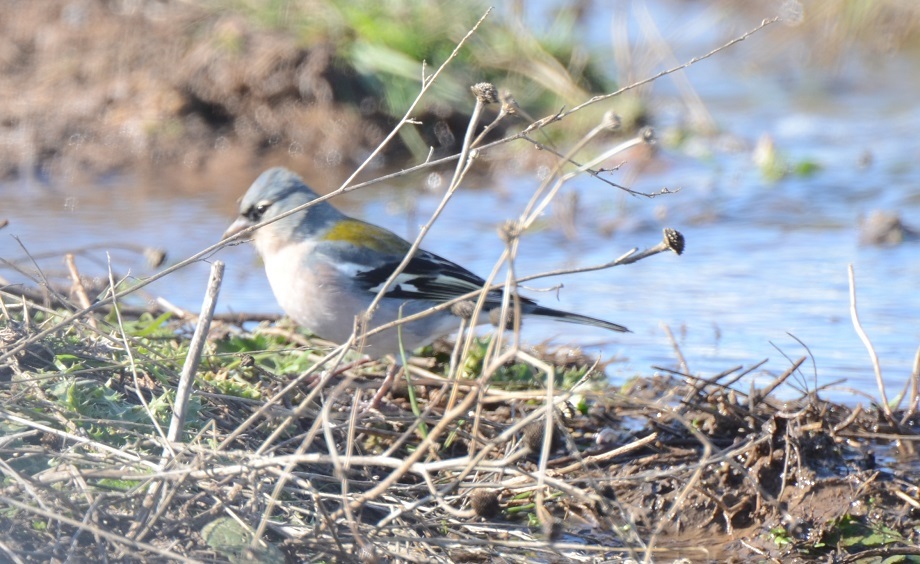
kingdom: Animalia
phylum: Chordata
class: Aves
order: Passeriformes
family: Fringillidae
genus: Fringilla
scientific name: Fringilla spodiogenys
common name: African chaffinch
